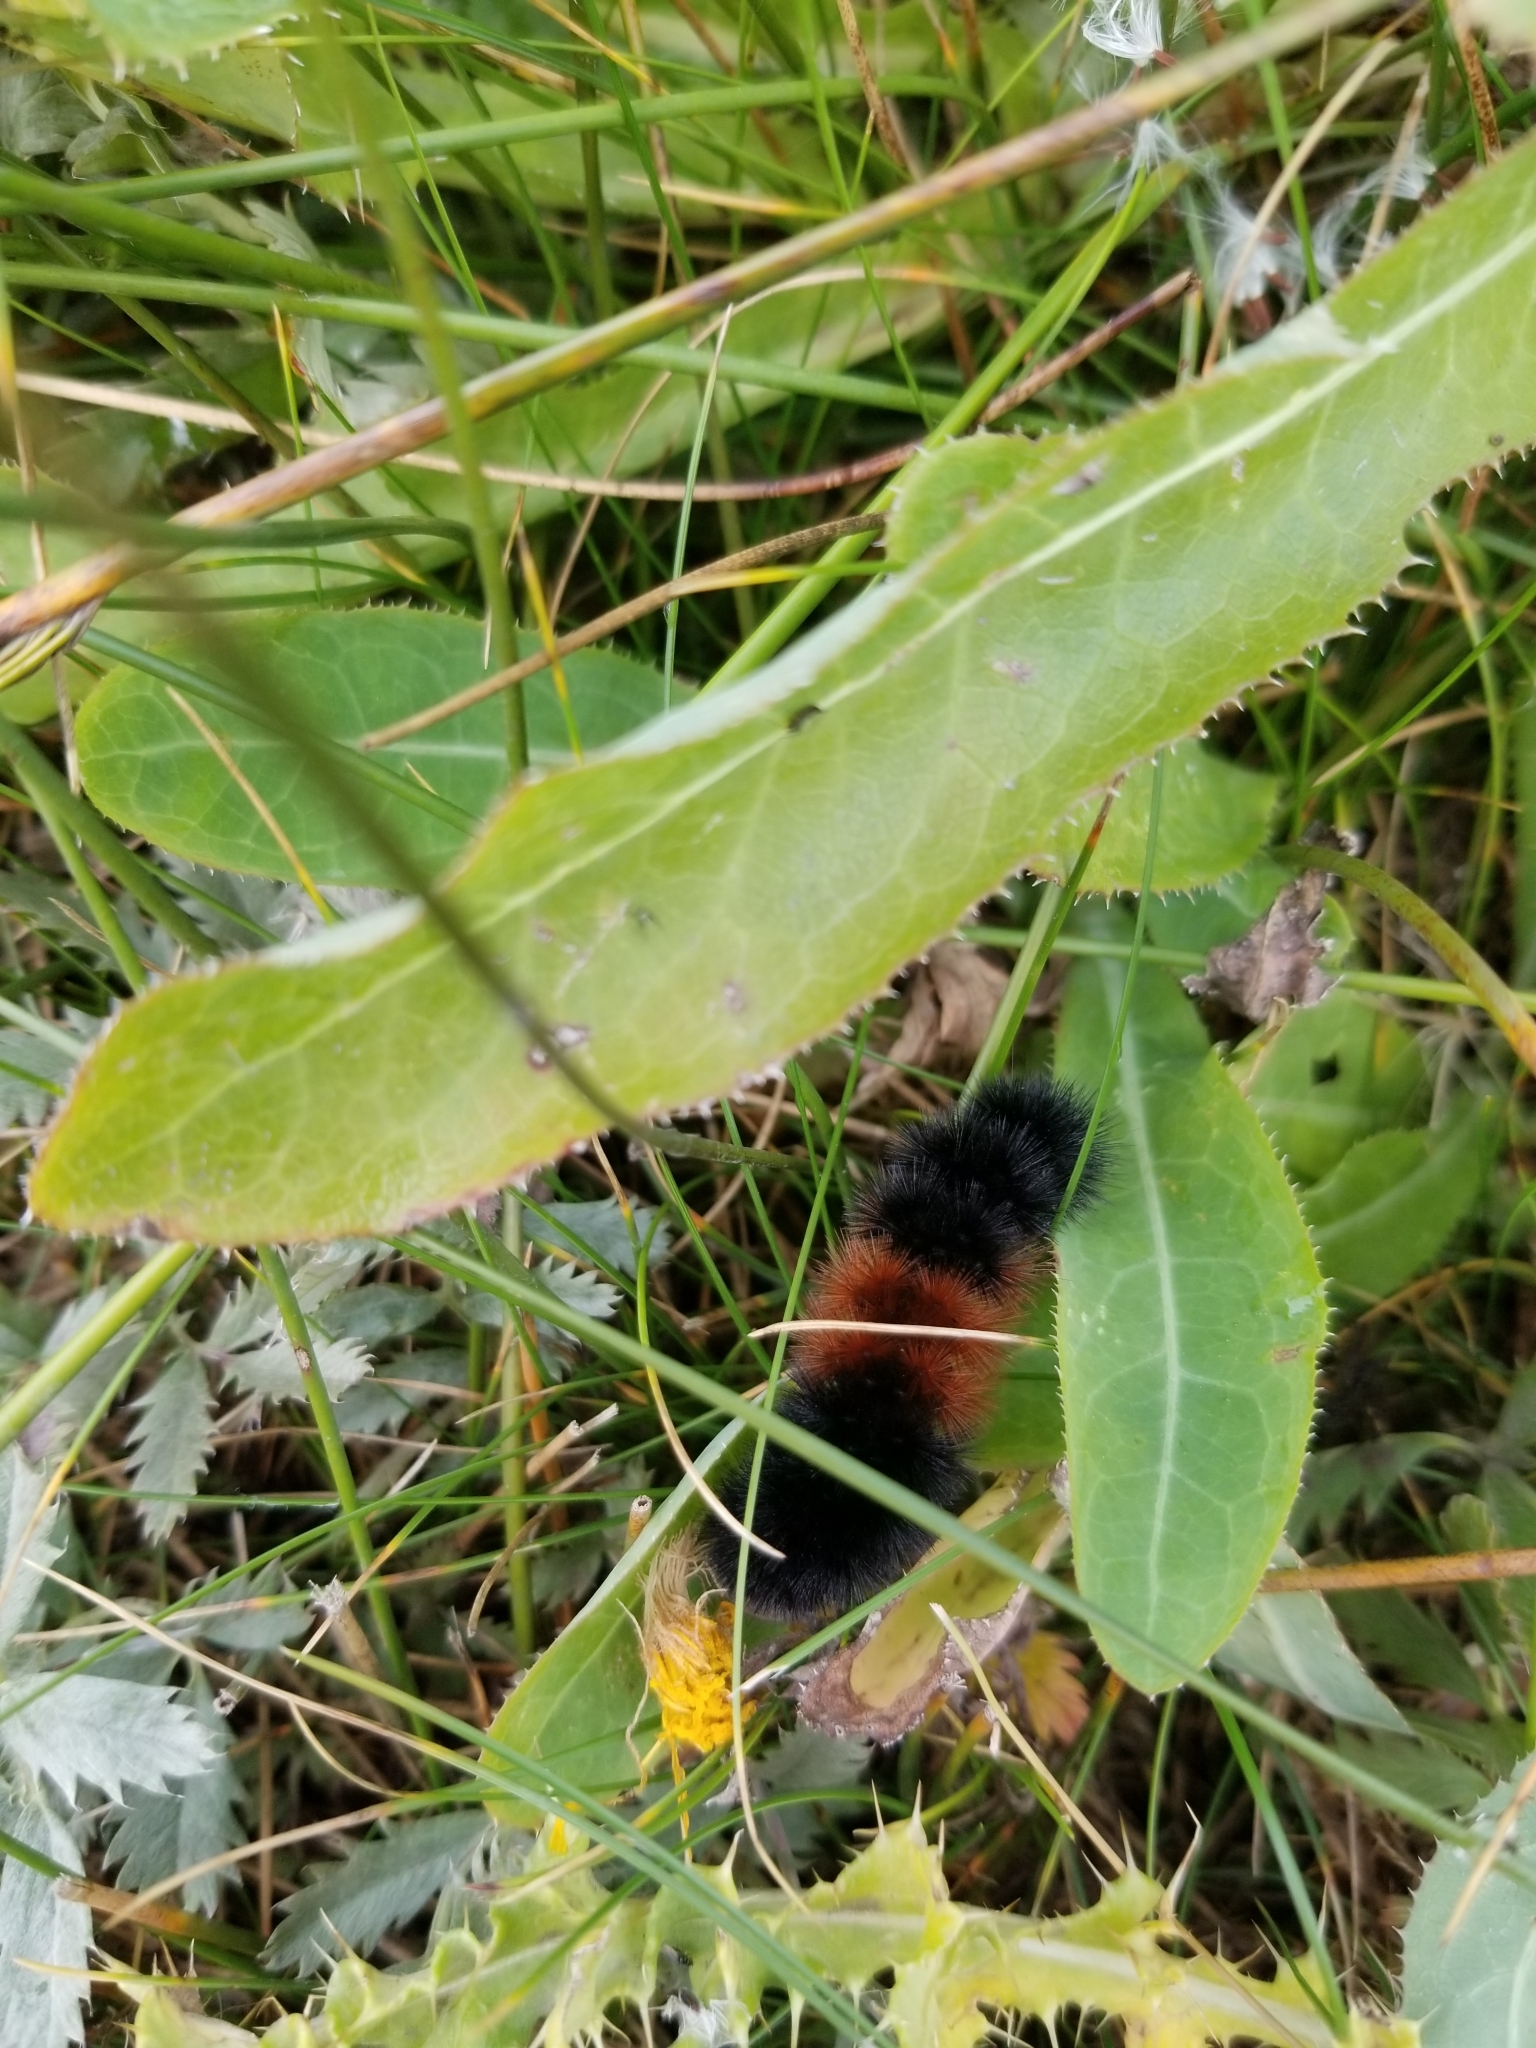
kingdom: Animalia
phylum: Arthropoda
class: Insecta
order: Lepidoptera
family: Erebidae
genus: Pyrrharctia
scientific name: Pyrrharctia isabella
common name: Isabella tiger moth
